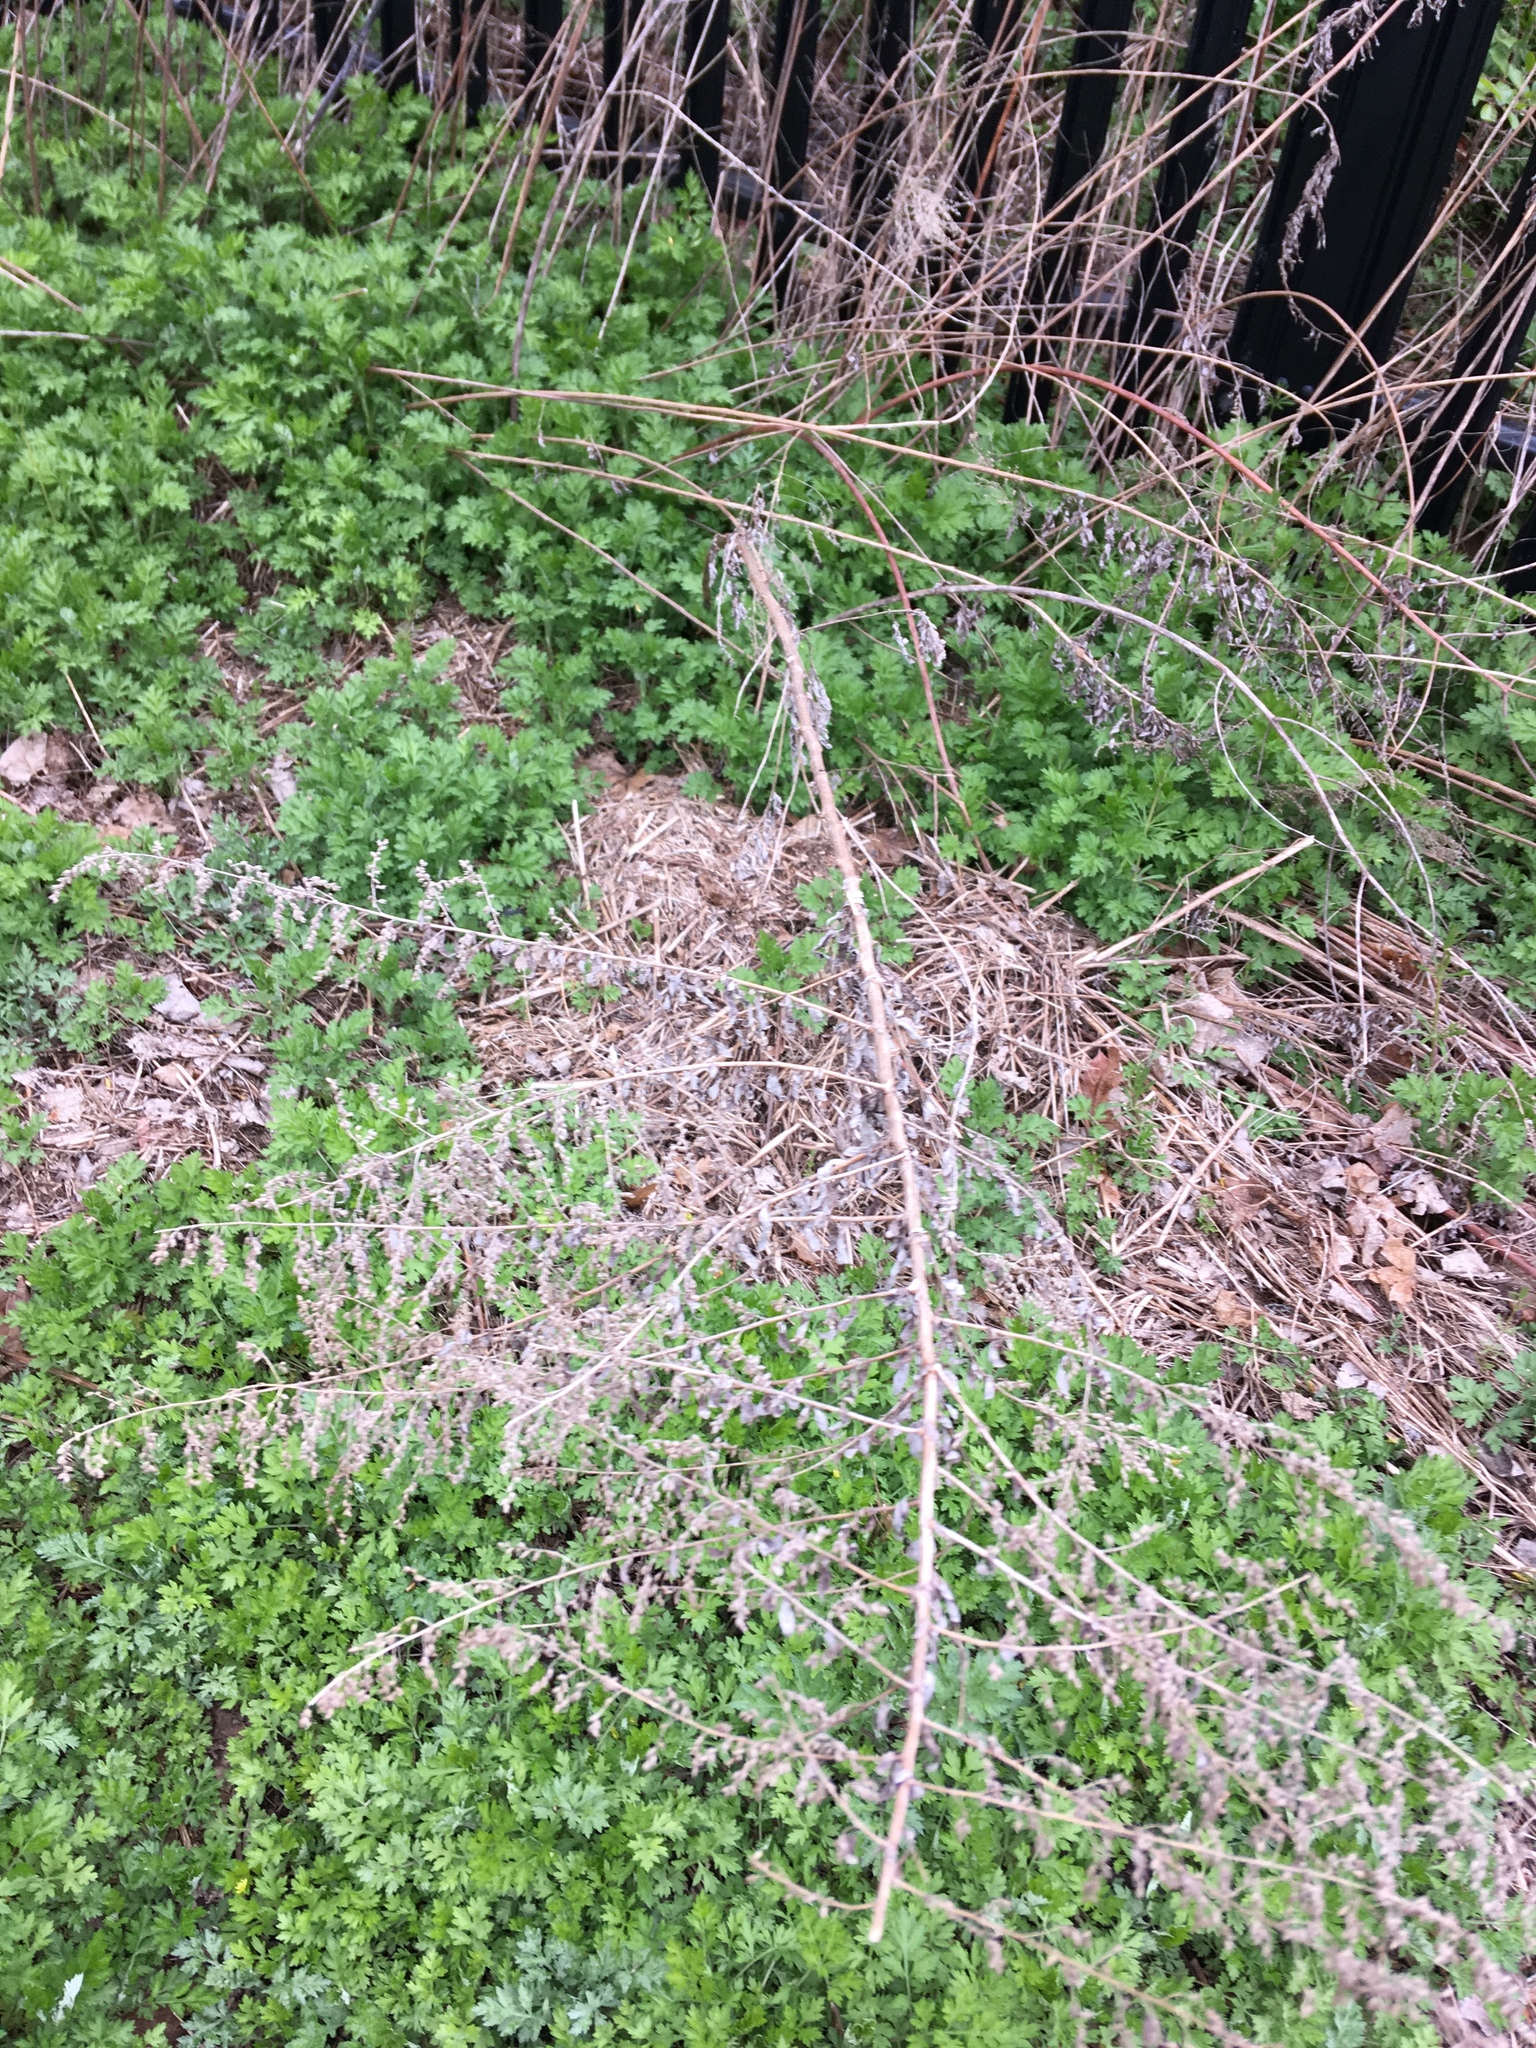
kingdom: Plantae
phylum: Tracheophyta
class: Magnoliopsida
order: Asterales
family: Asteraceae
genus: Artemisia
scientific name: Artemisia vulgaris
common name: Mugwort
